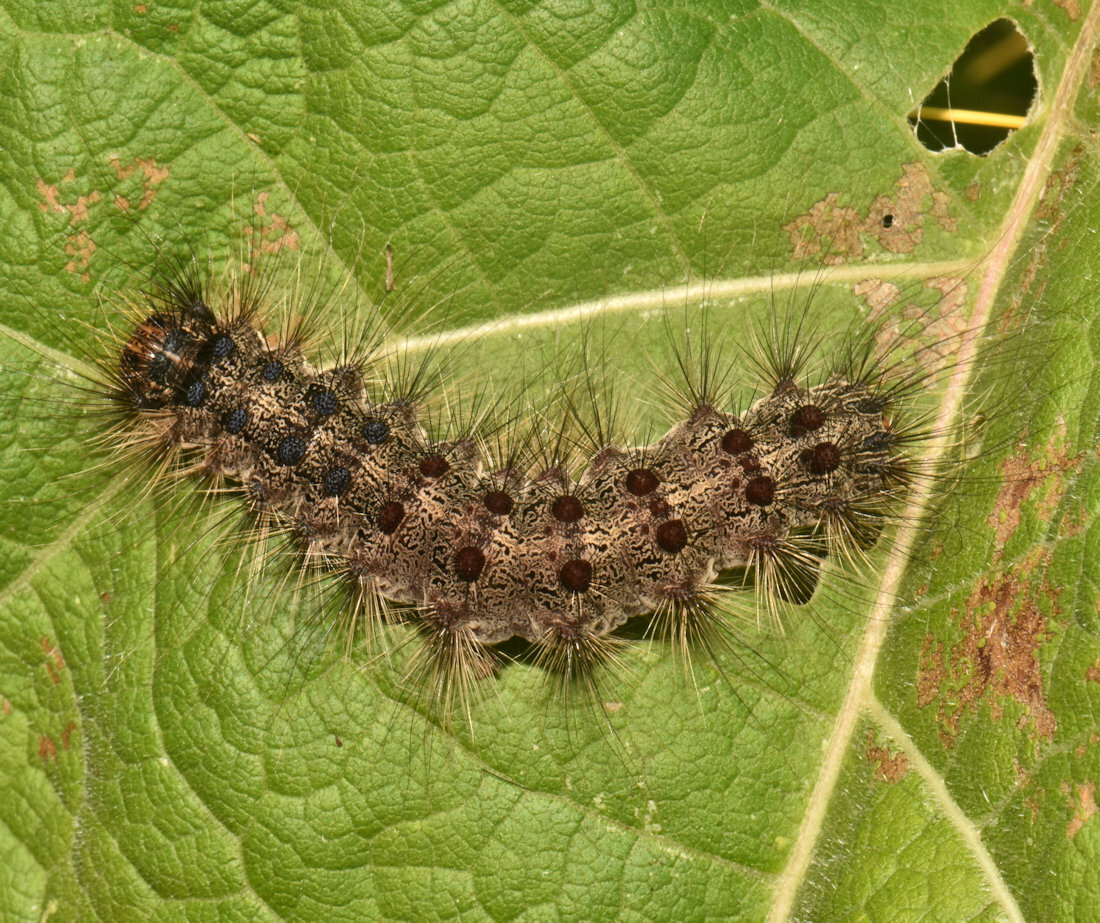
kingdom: Animalia
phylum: Arthropoda
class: Insecta
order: Lepidoptera
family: Erebidae
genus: Lymantria
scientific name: Lymantria dispar
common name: Gypsy moth
